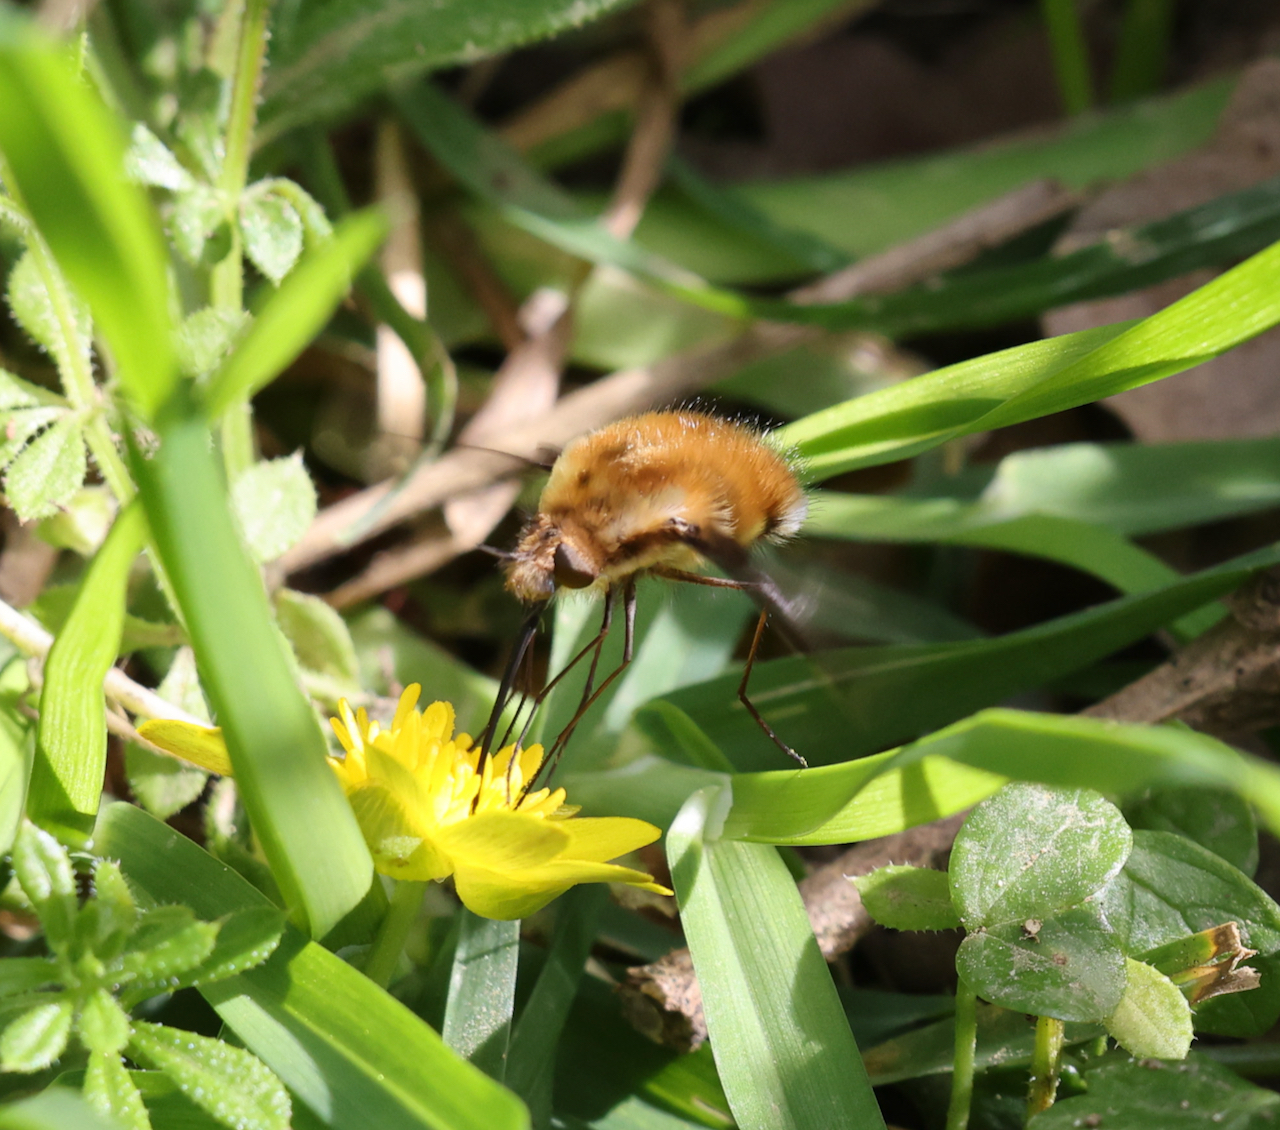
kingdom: Animalia
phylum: Arthropoda
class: Insecta
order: Diptera
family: Bombyliidae
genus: Bombylius
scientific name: Bombylius major
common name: Bee fly
